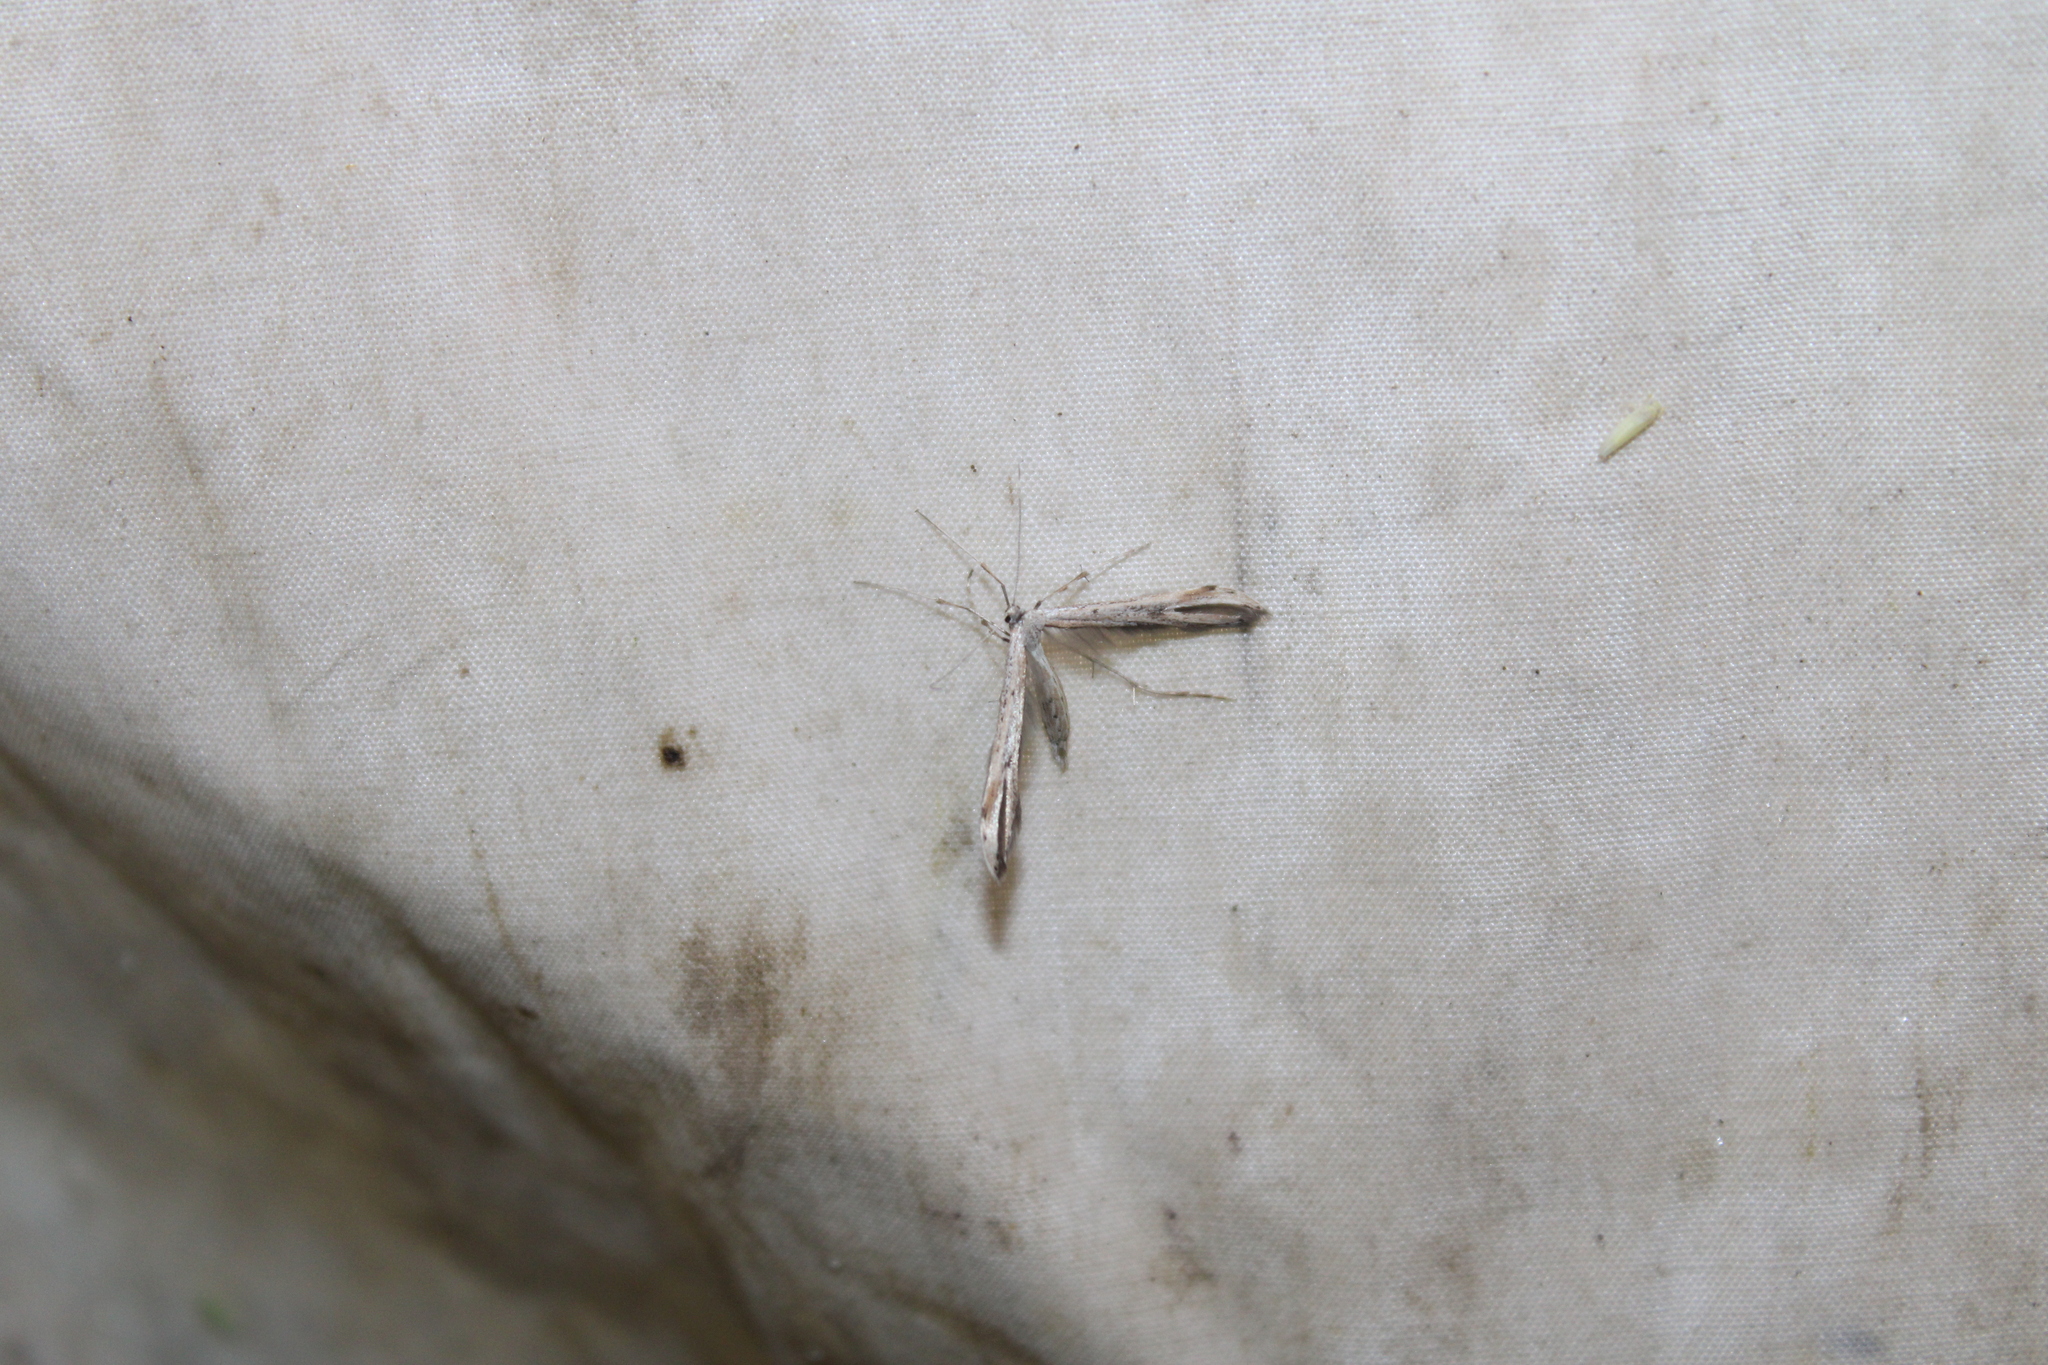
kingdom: Animalia
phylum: Arthropoda
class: Insecta
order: Lepidoptera
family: Pterophoridae
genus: Emmelina
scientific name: Emmelina monodactyla
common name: Common plume
